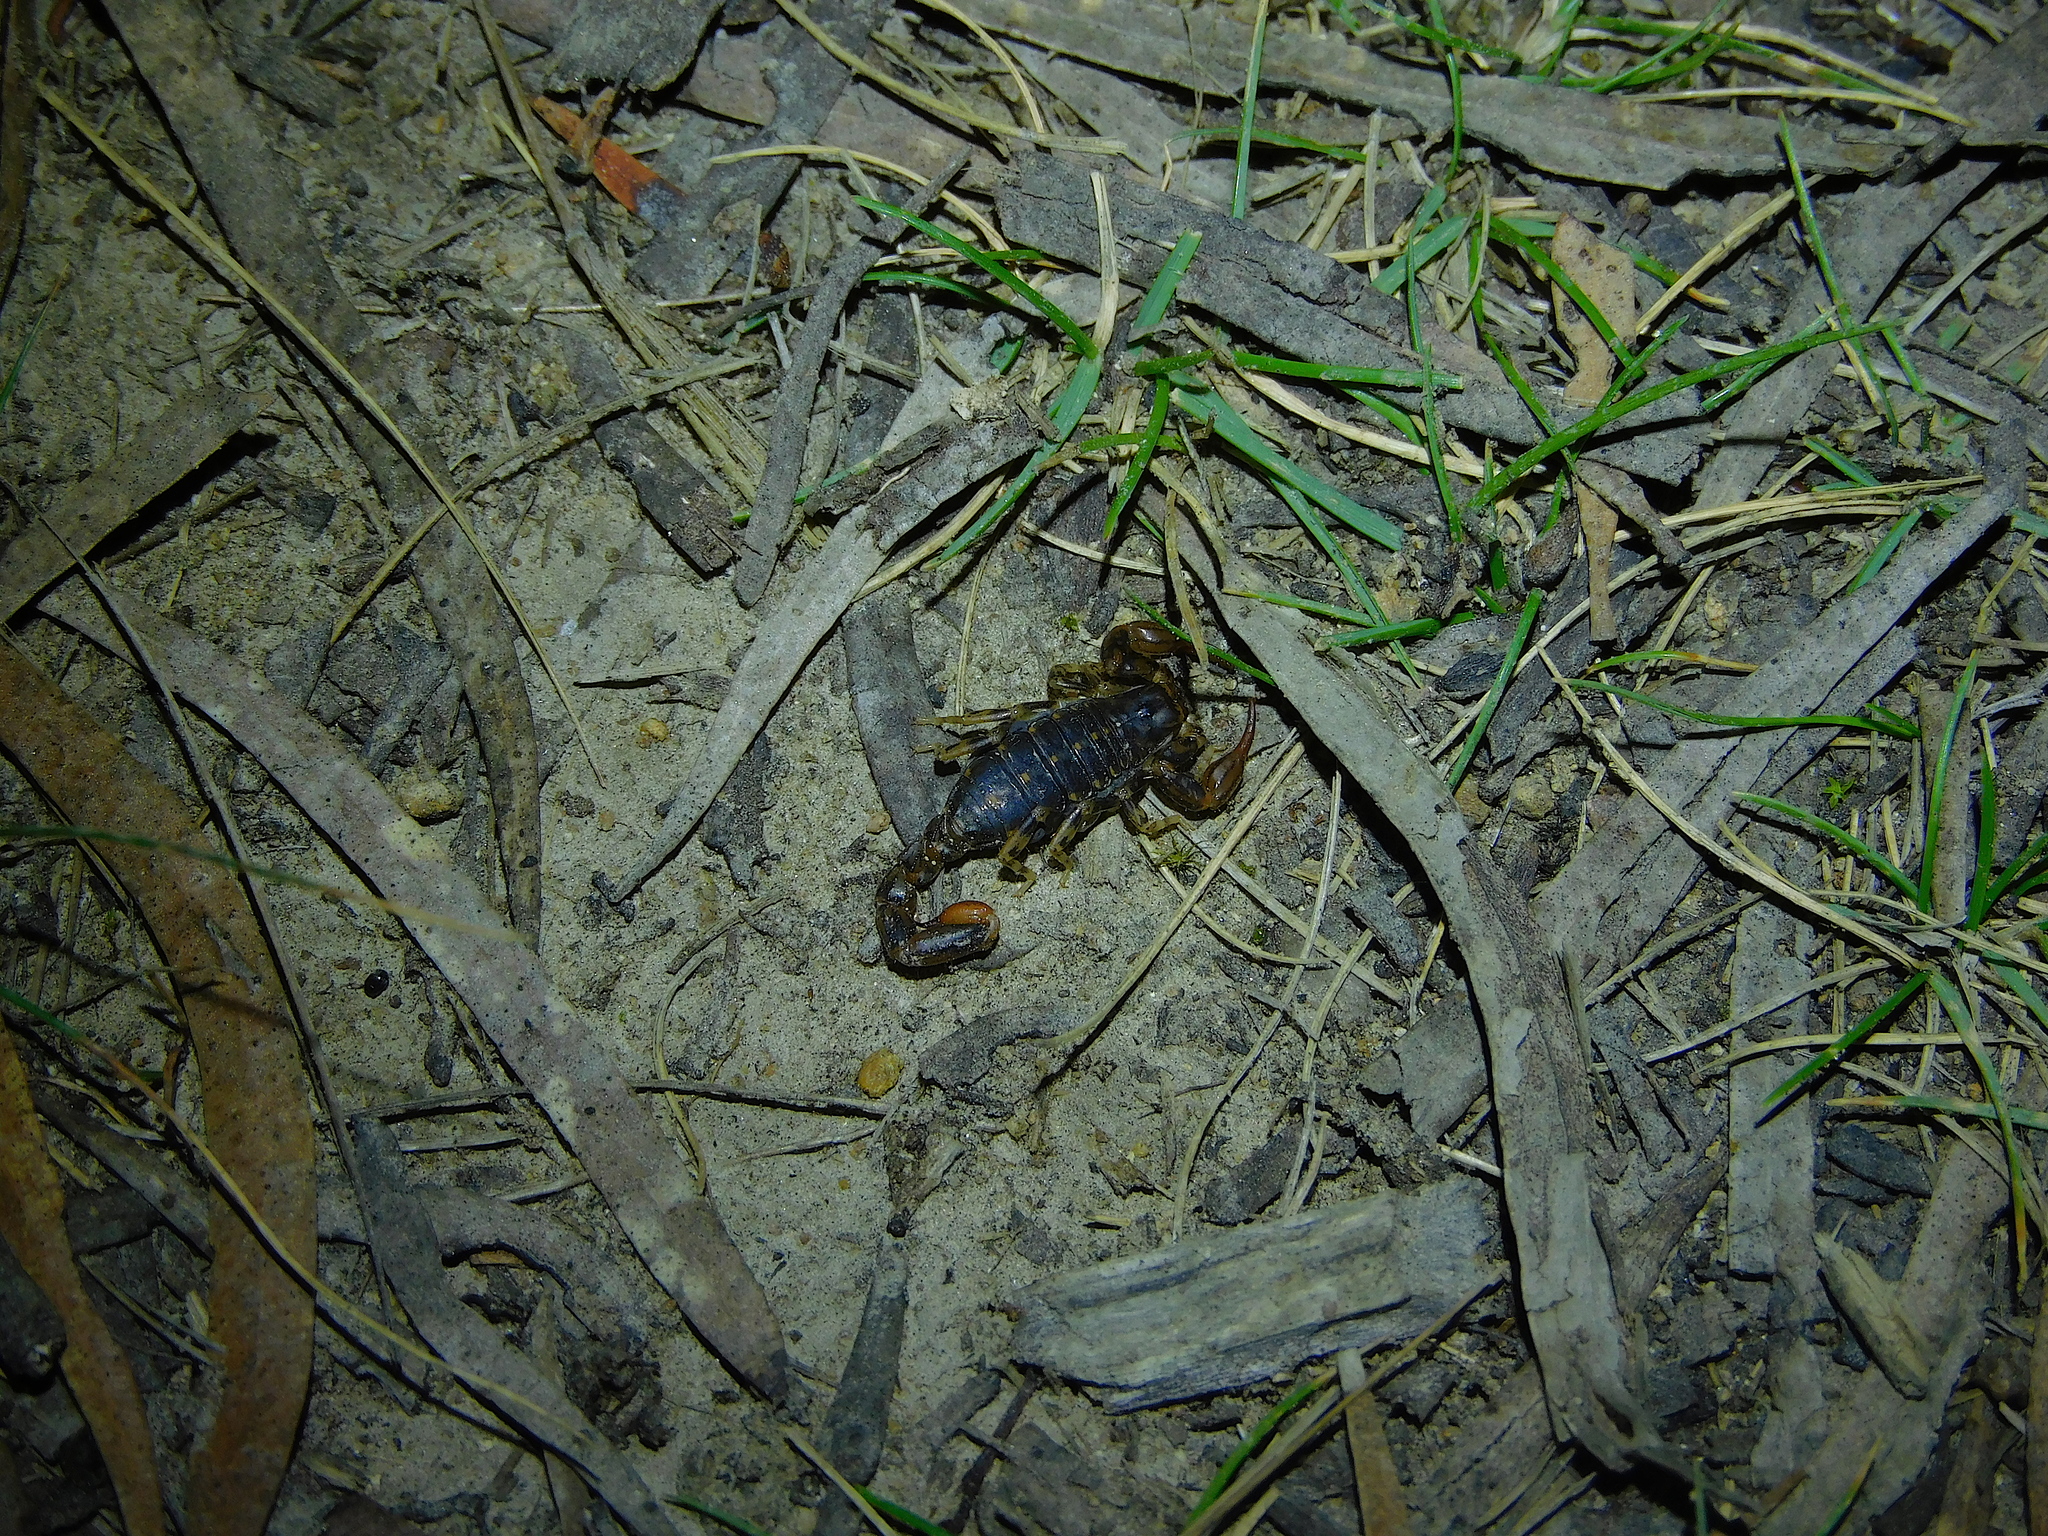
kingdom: Animalia
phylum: Arthropoda
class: Arachnida
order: Scorpiones
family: Bothriuridae
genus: Cercophonius
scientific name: Cercophonius squama
